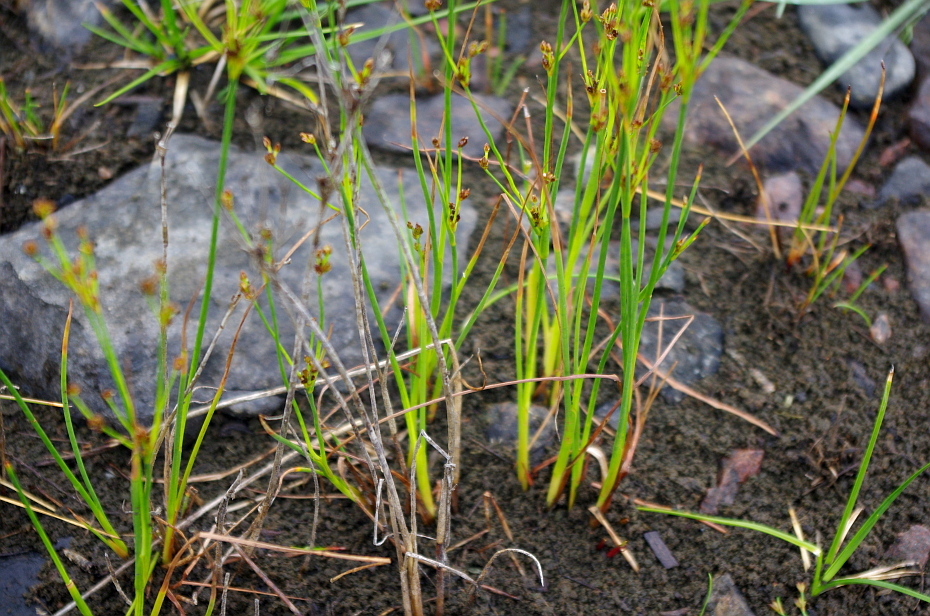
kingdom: Plantae
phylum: Tracheophyta
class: Liliopsida
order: Poales
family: Juncaceae
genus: Juncus
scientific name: Juncus alpinoarticulatus
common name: Alpine rush
